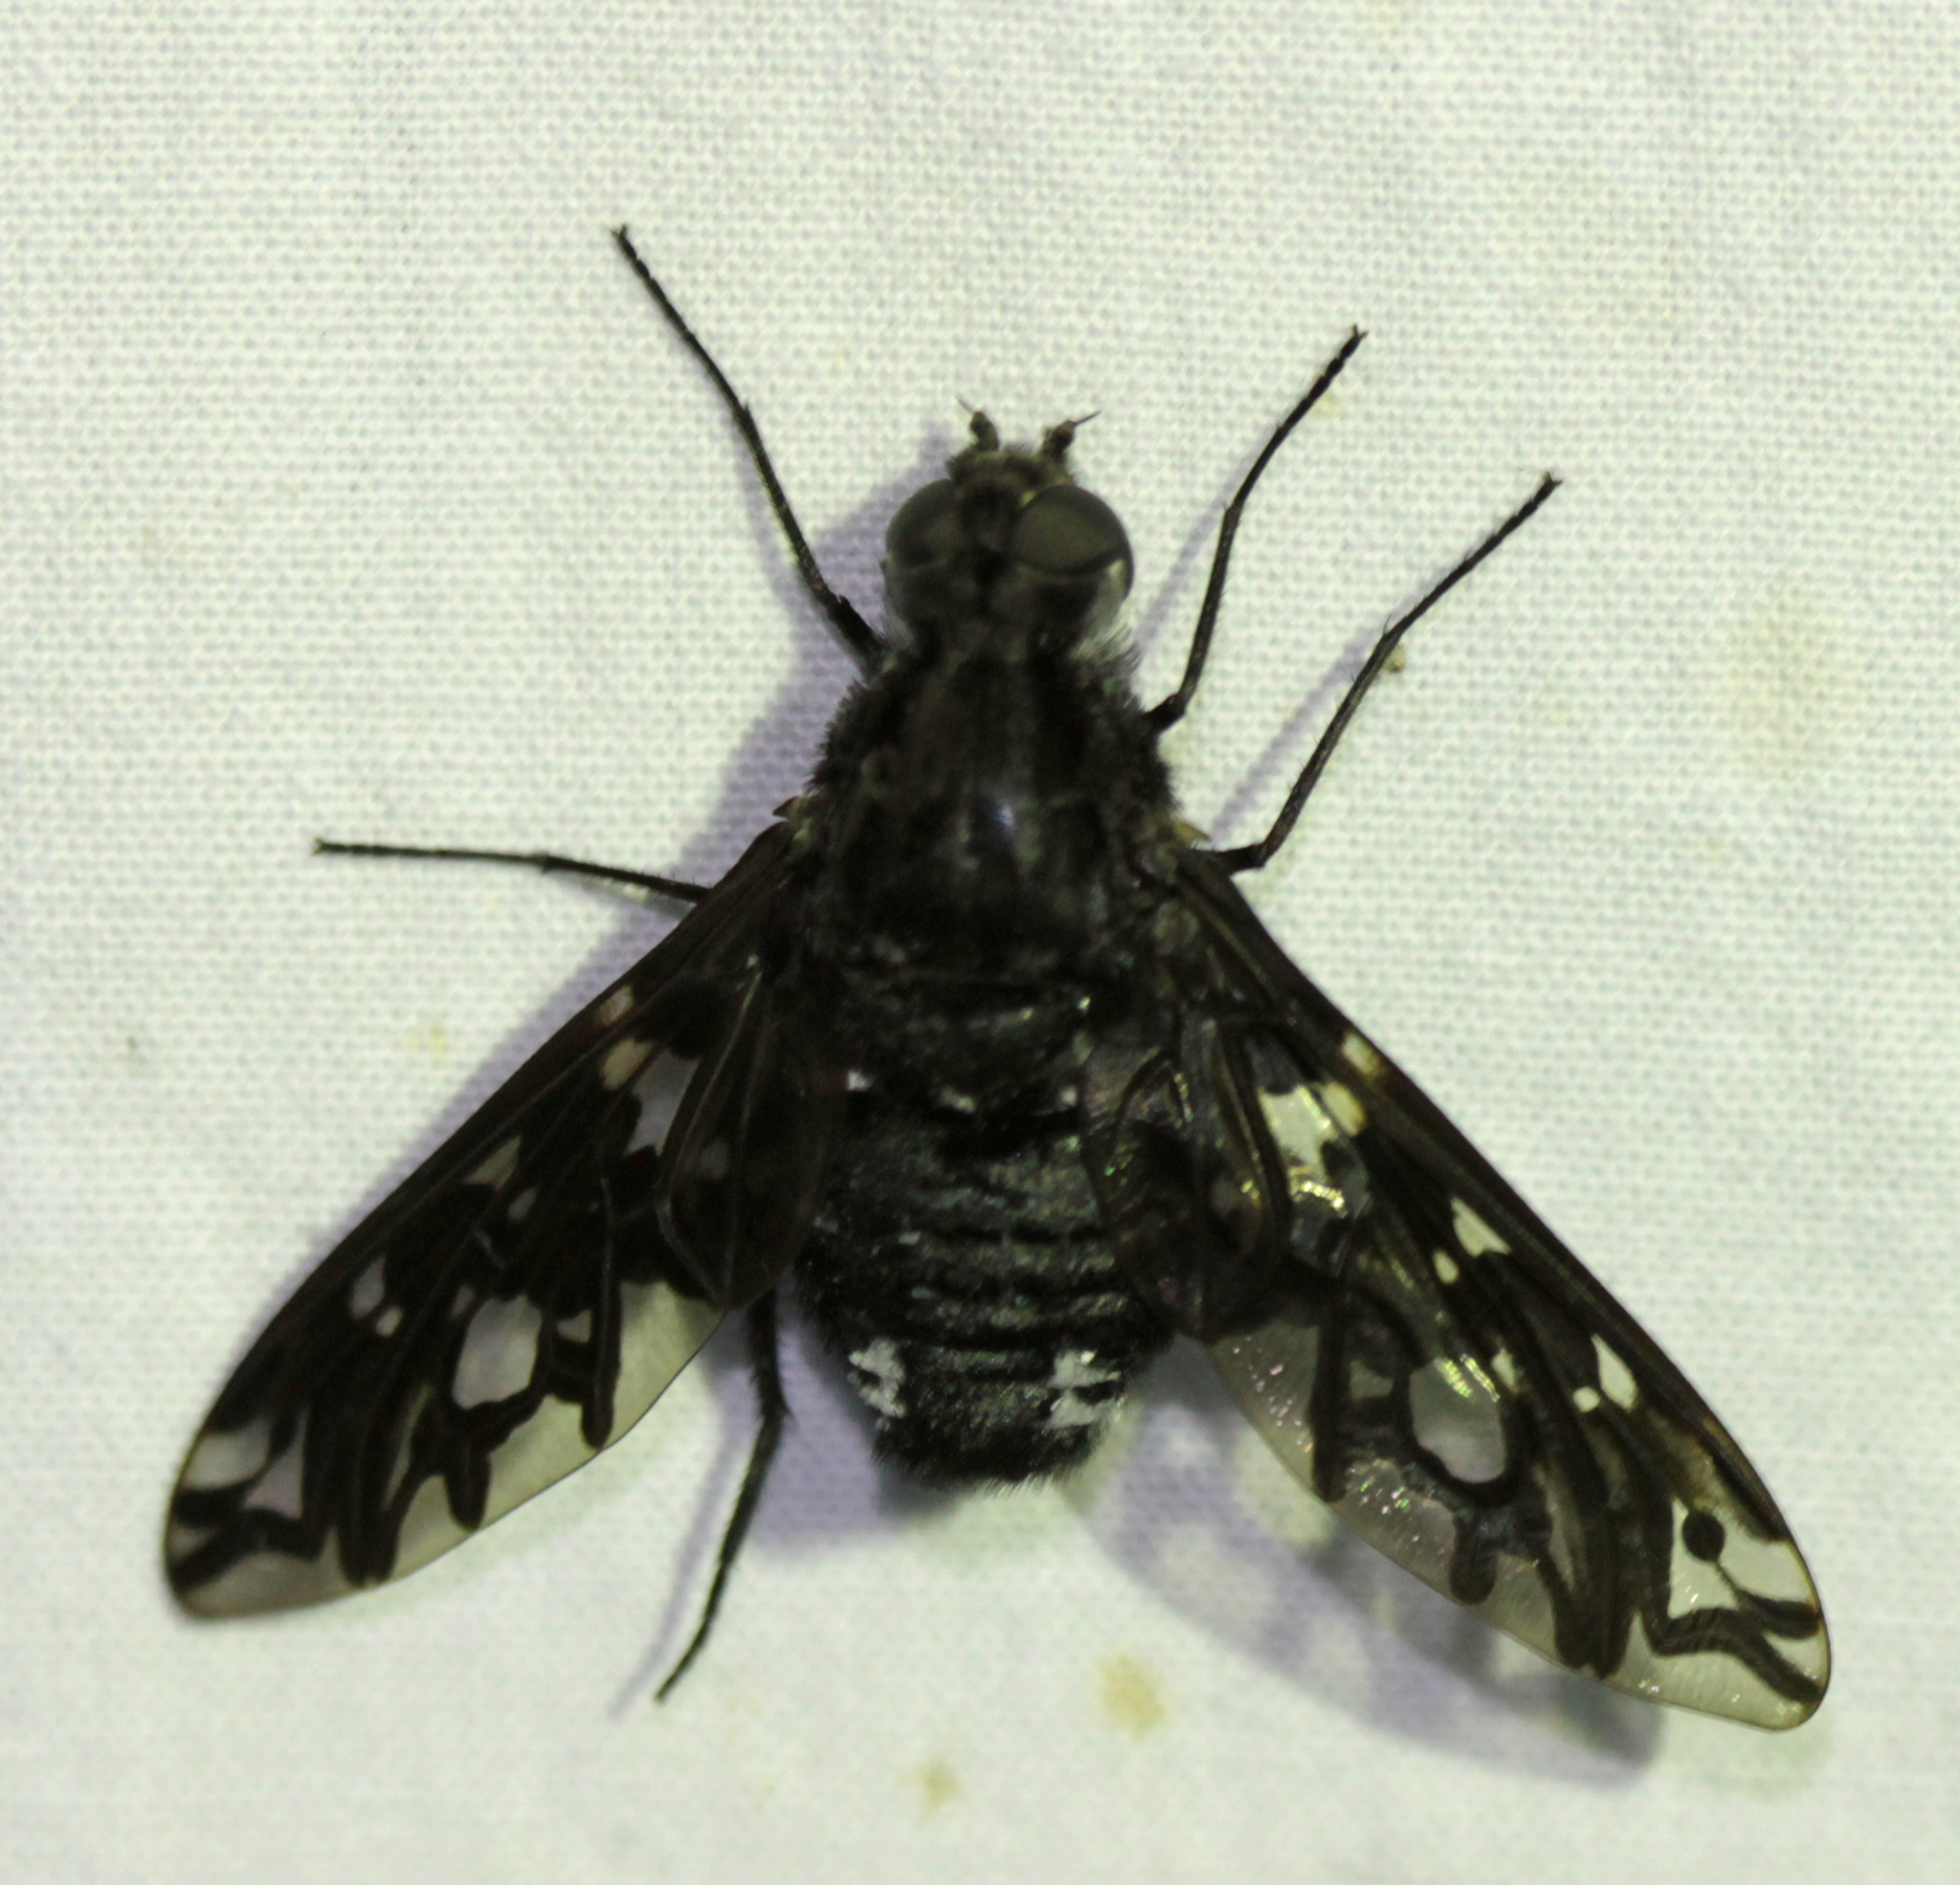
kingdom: Animalia
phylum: Arthropoda
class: Insecta
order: Diptera
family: Bombyliidae
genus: Xenox
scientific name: Xenox tigrinus
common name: Tiger bee fly
